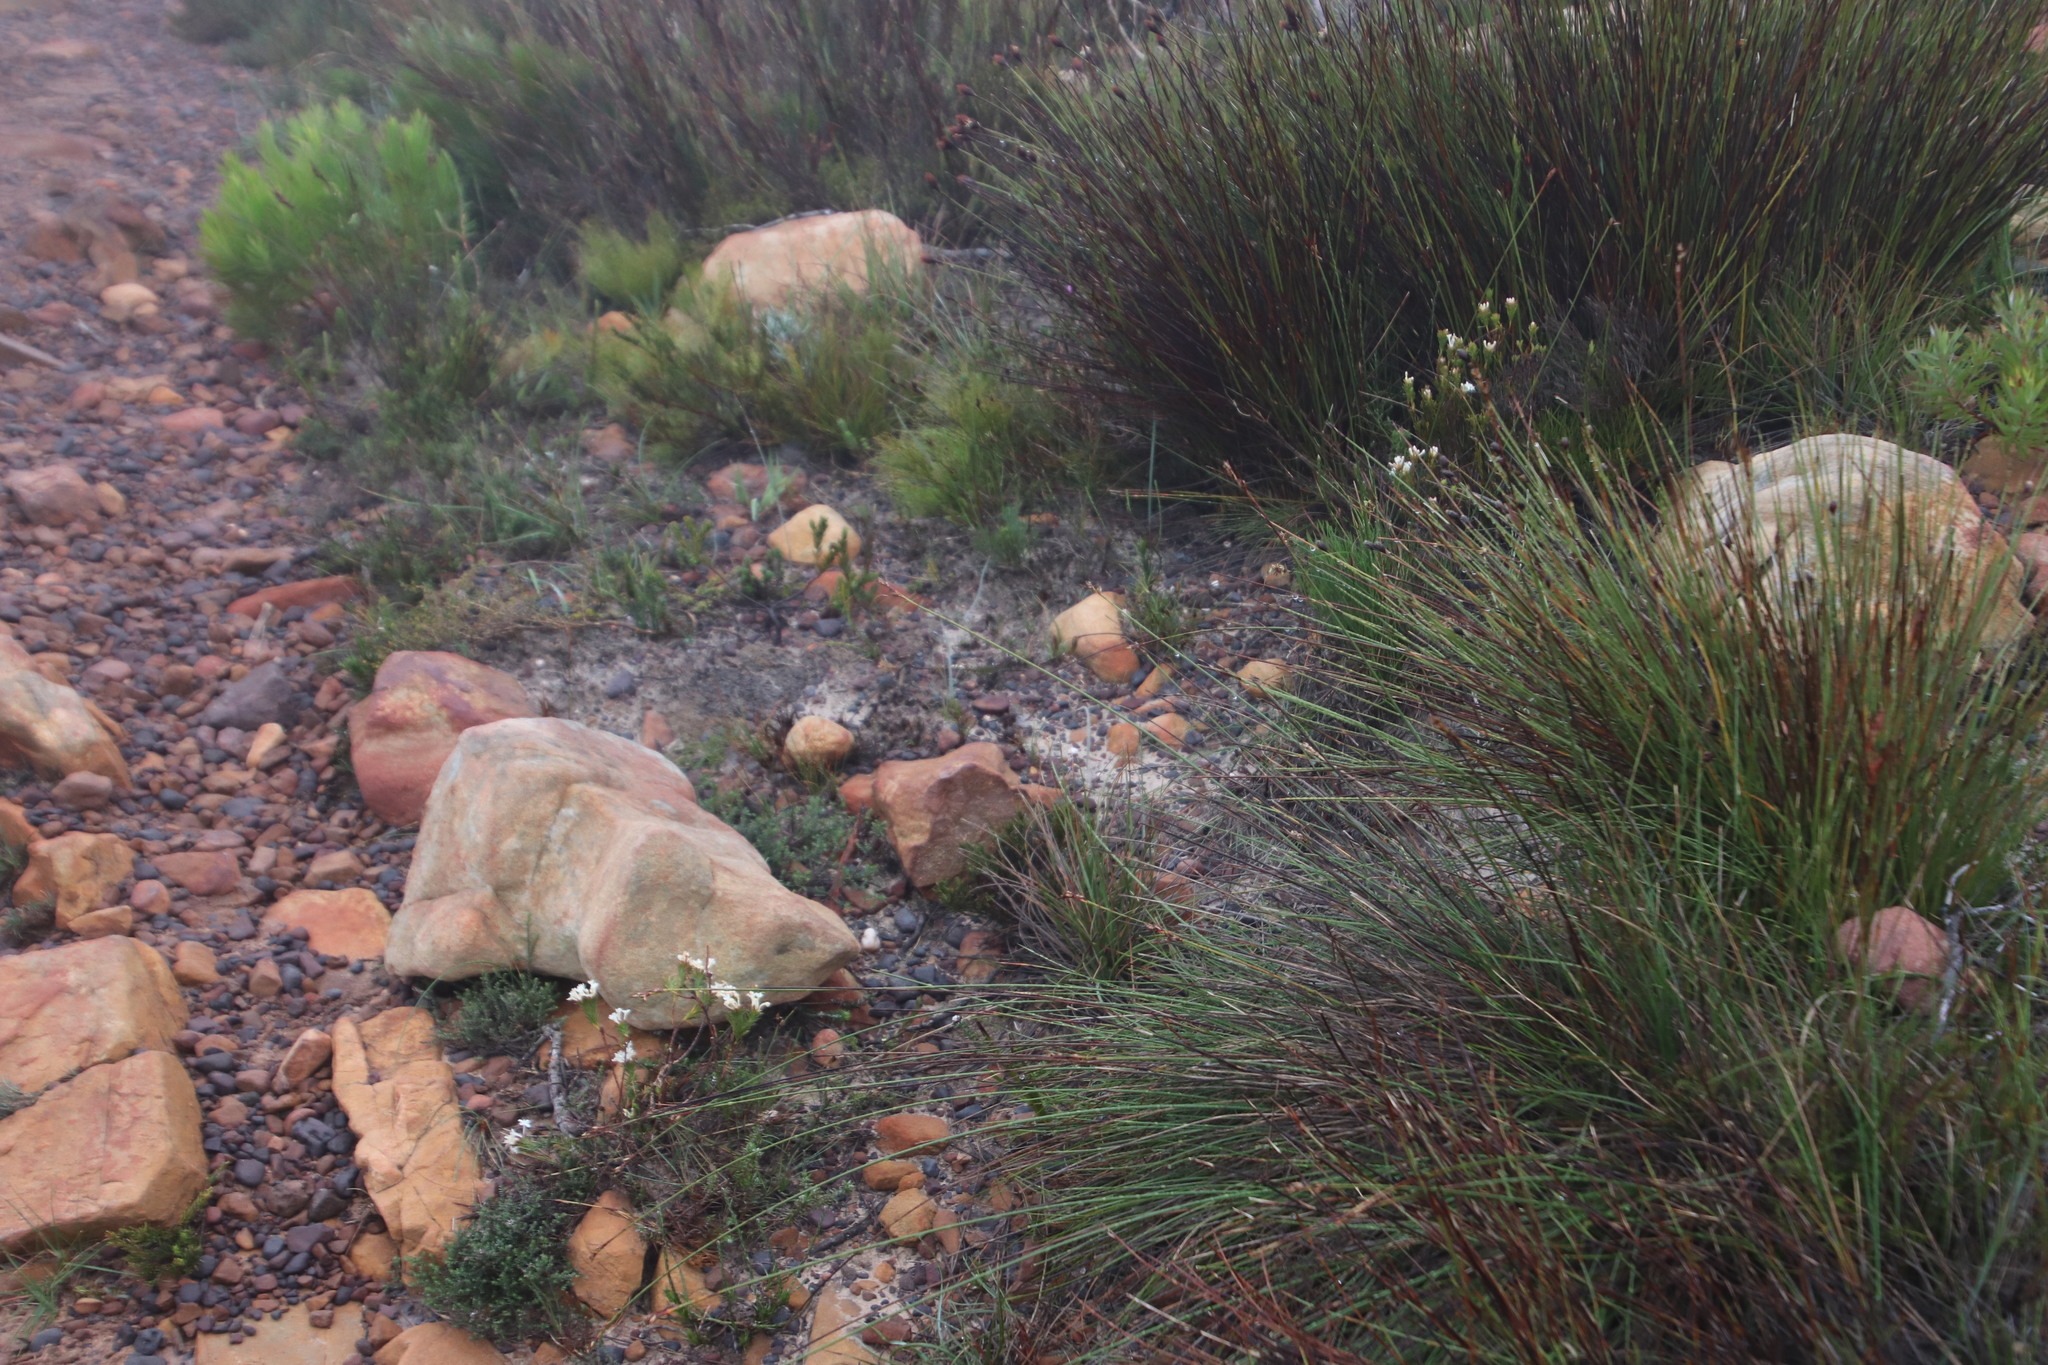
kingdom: Plantae
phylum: Tracheophyta
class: Magnoliopsida
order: Malvales
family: Thymelaeaceae
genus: Struthiola
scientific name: Struthiola ciliata
